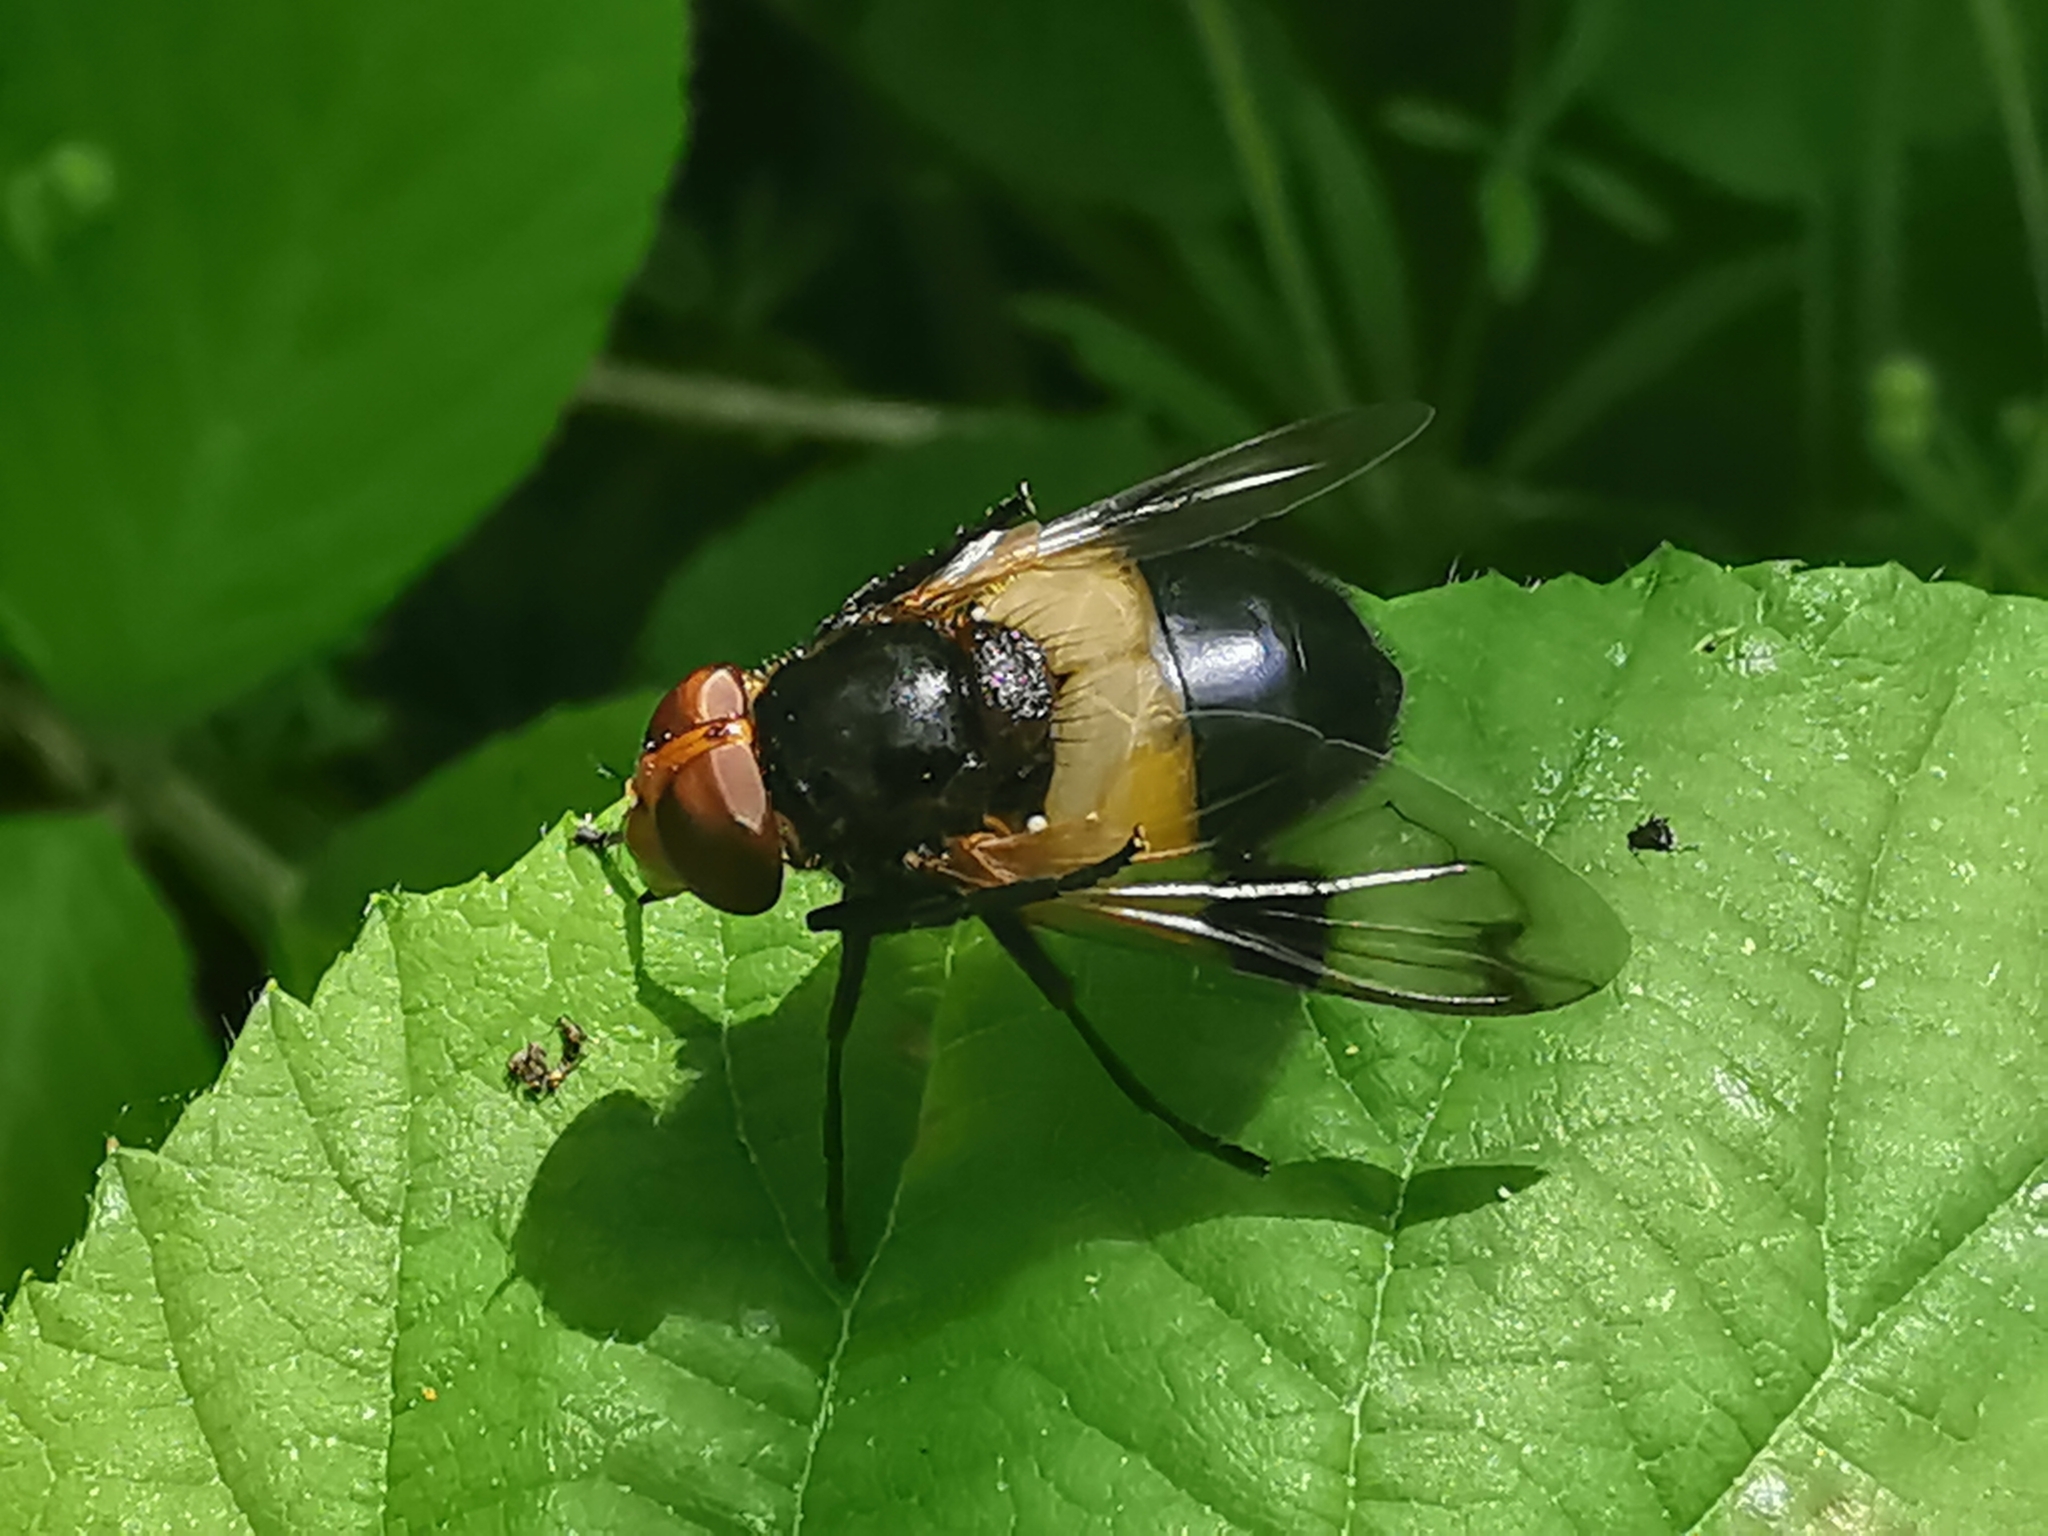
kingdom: Animalia
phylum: Arthropoda
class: Insecta
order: Diptera
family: Syrphidae
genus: Volucella
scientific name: Volucella pellucens
